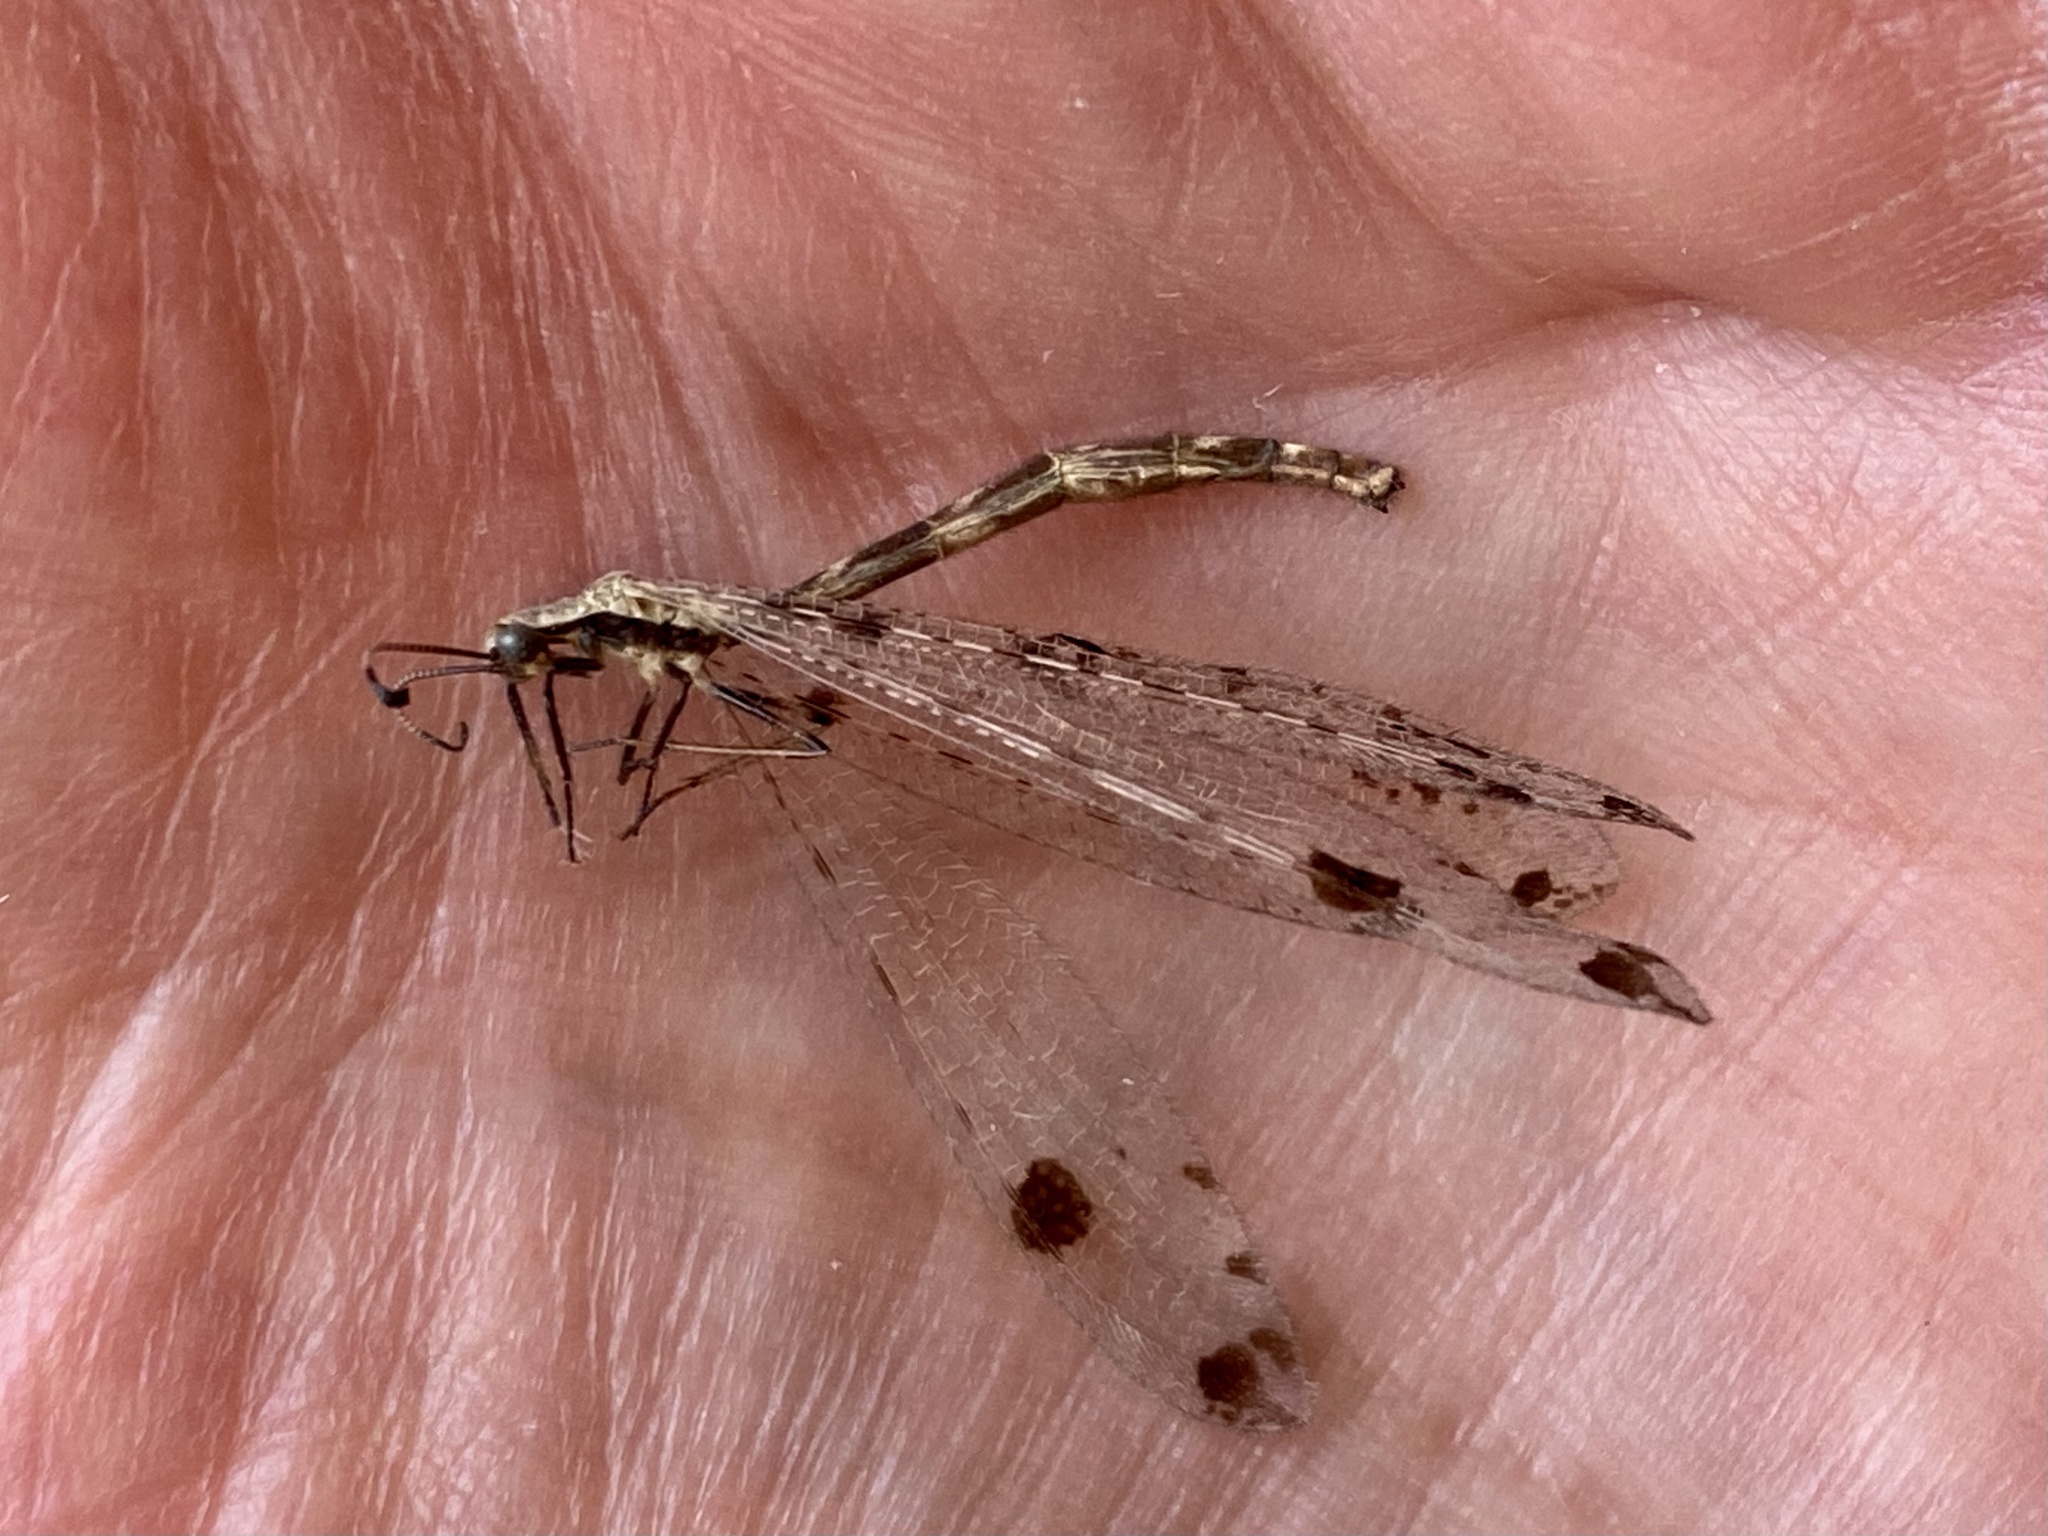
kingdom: Animalia
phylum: Arthropoda
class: Insecta
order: Neuroptera
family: Myrmeleontidae
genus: Dendroleon
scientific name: Dendroleon obsoletus
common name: Eastern spotted-winged antlion
